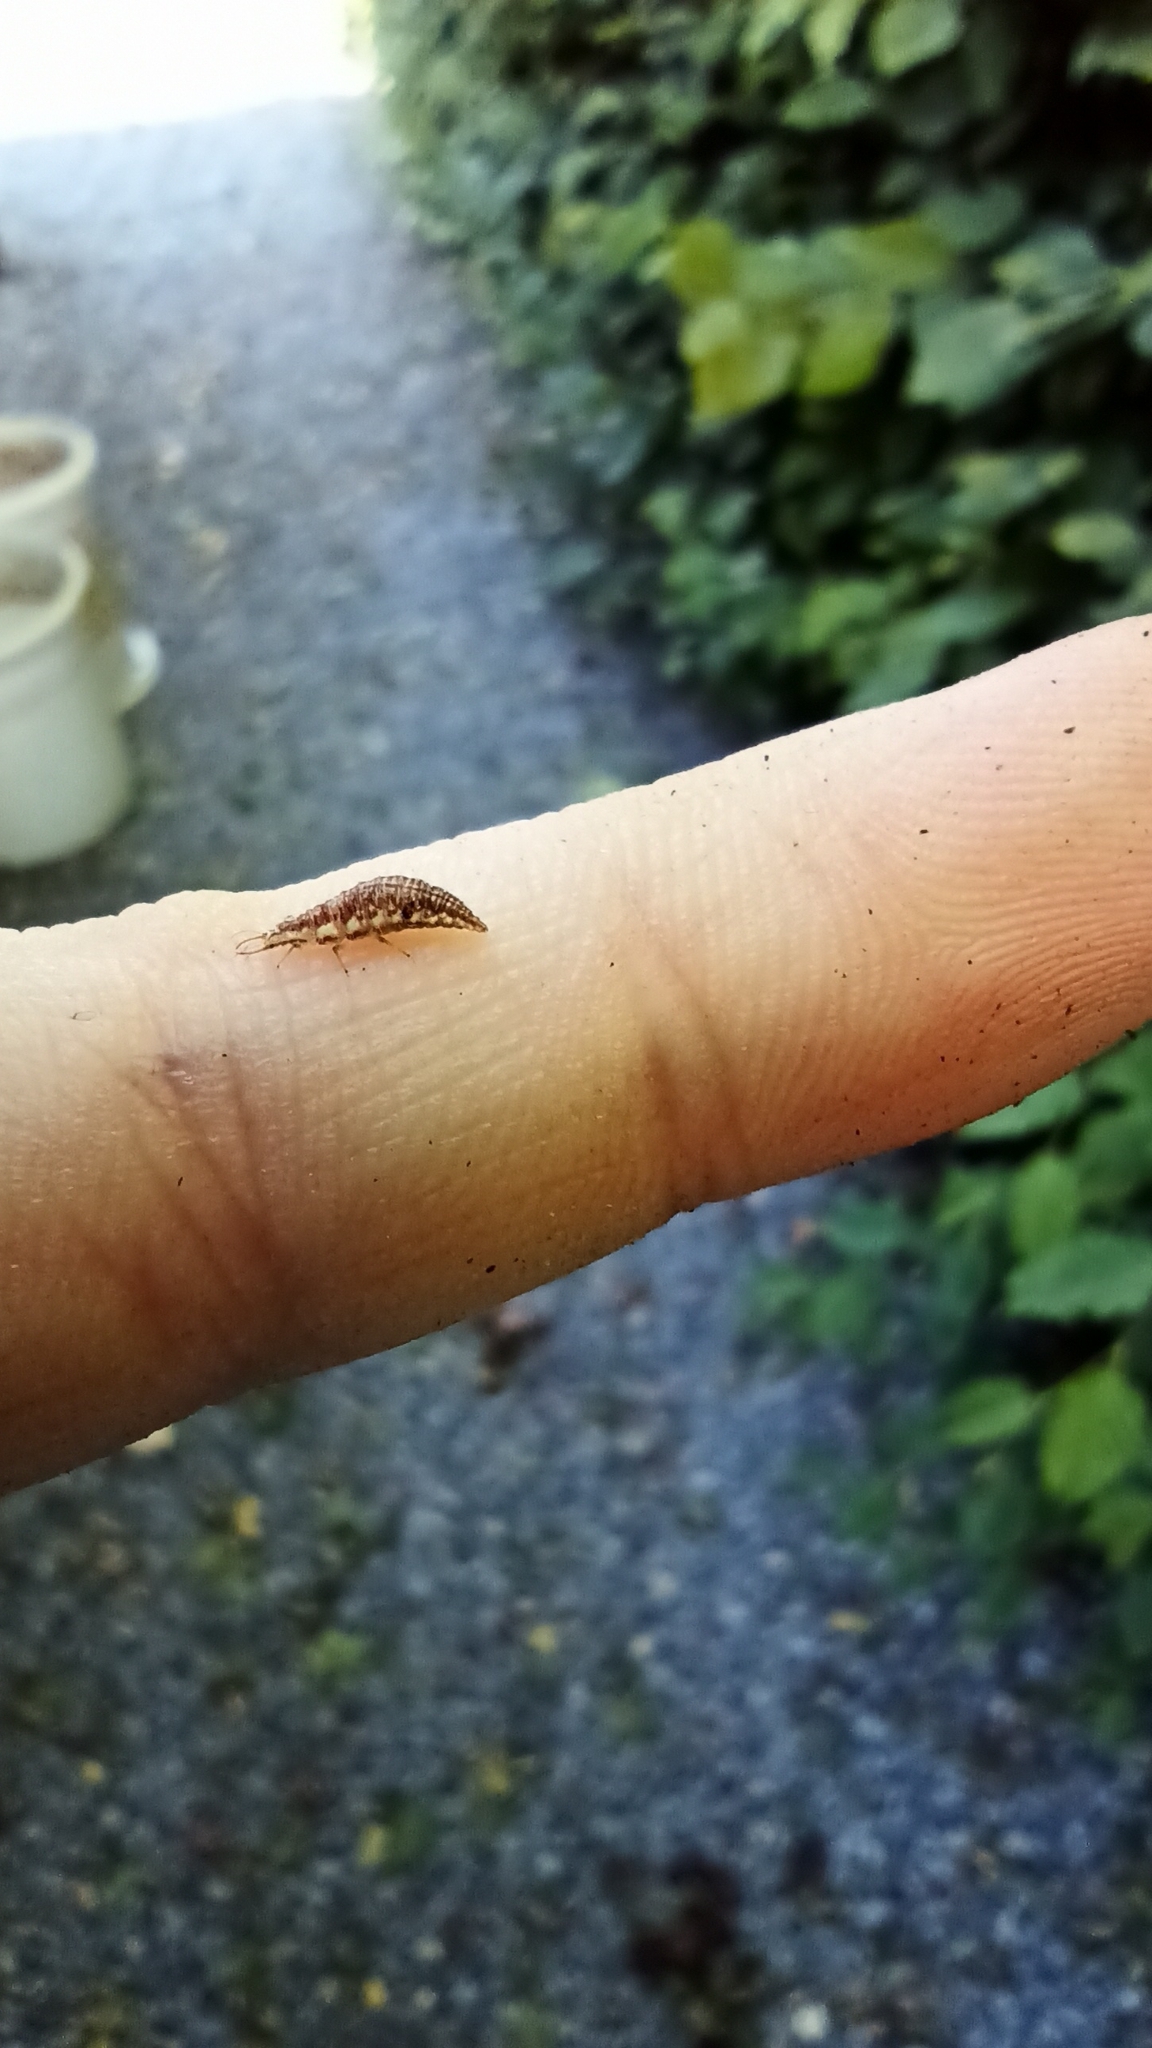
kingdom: Animalia
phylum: Arthropoda
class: Insecta
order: Neuroptera
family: Chrysopidae
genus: Chrysoperla
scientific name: Chrysoperla
